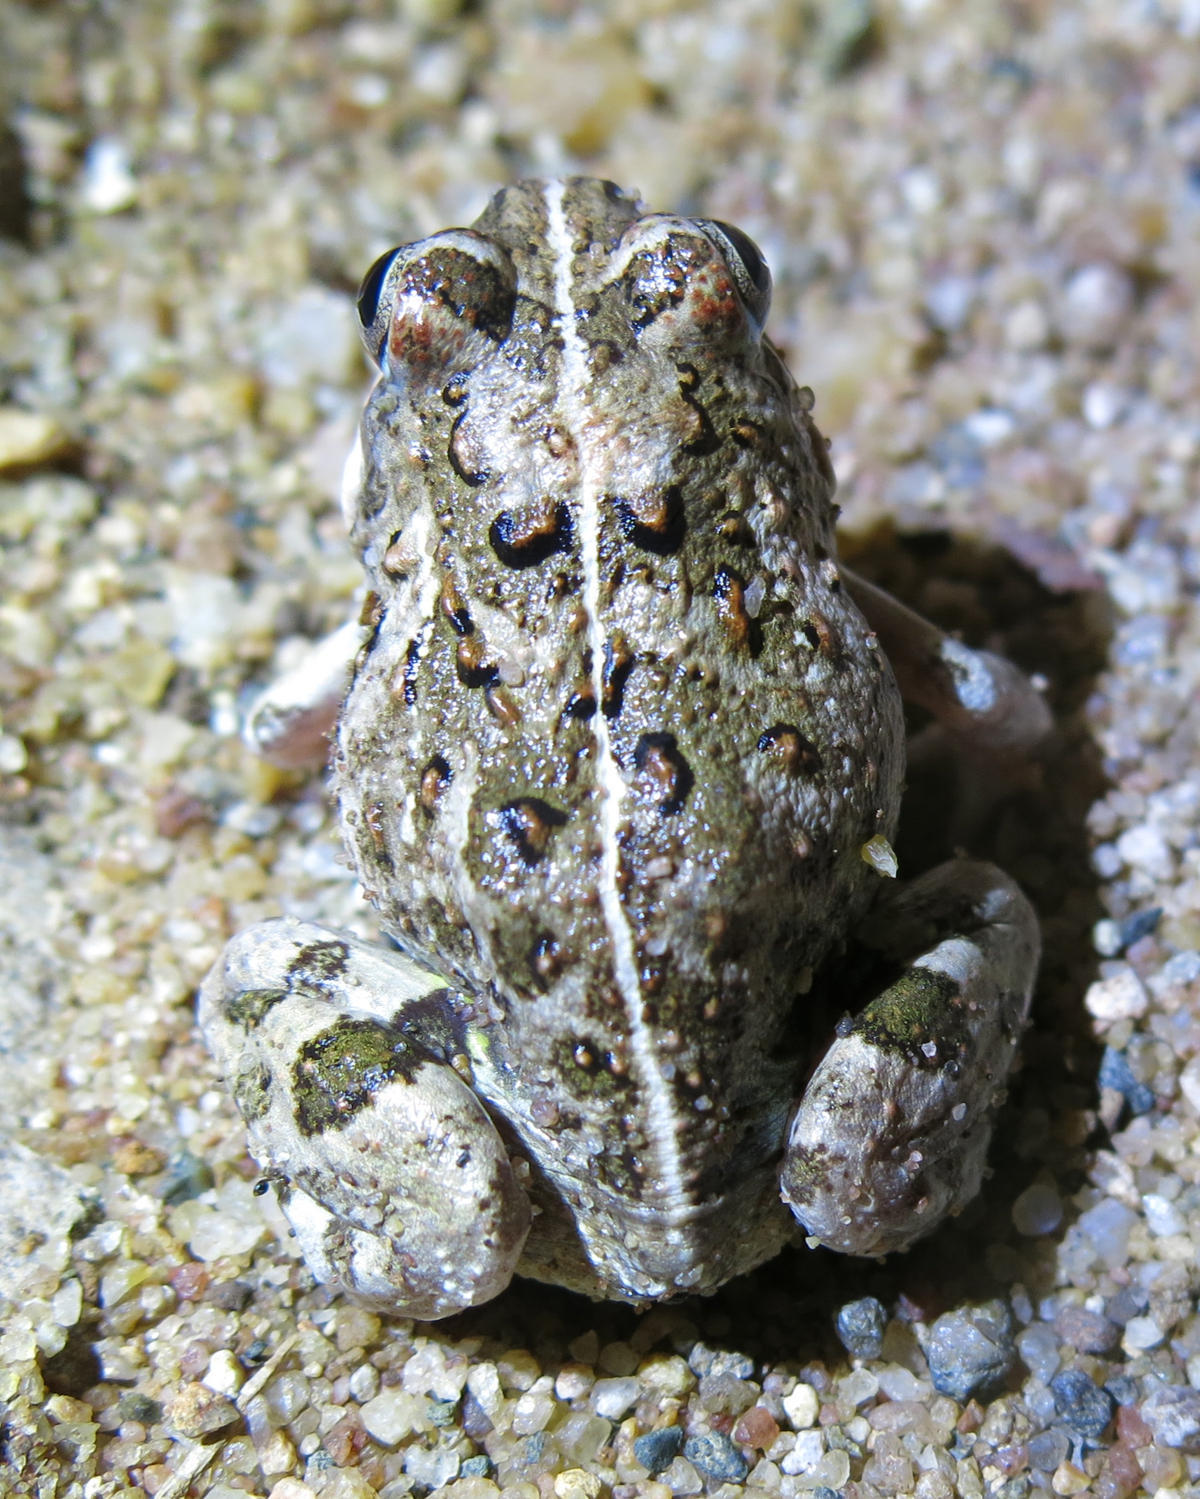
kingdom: Animalia
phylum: Chordata
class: Amphibia
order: Anura
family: Pyxicephalidae
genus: Tomopterna
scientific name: Tomopterna
